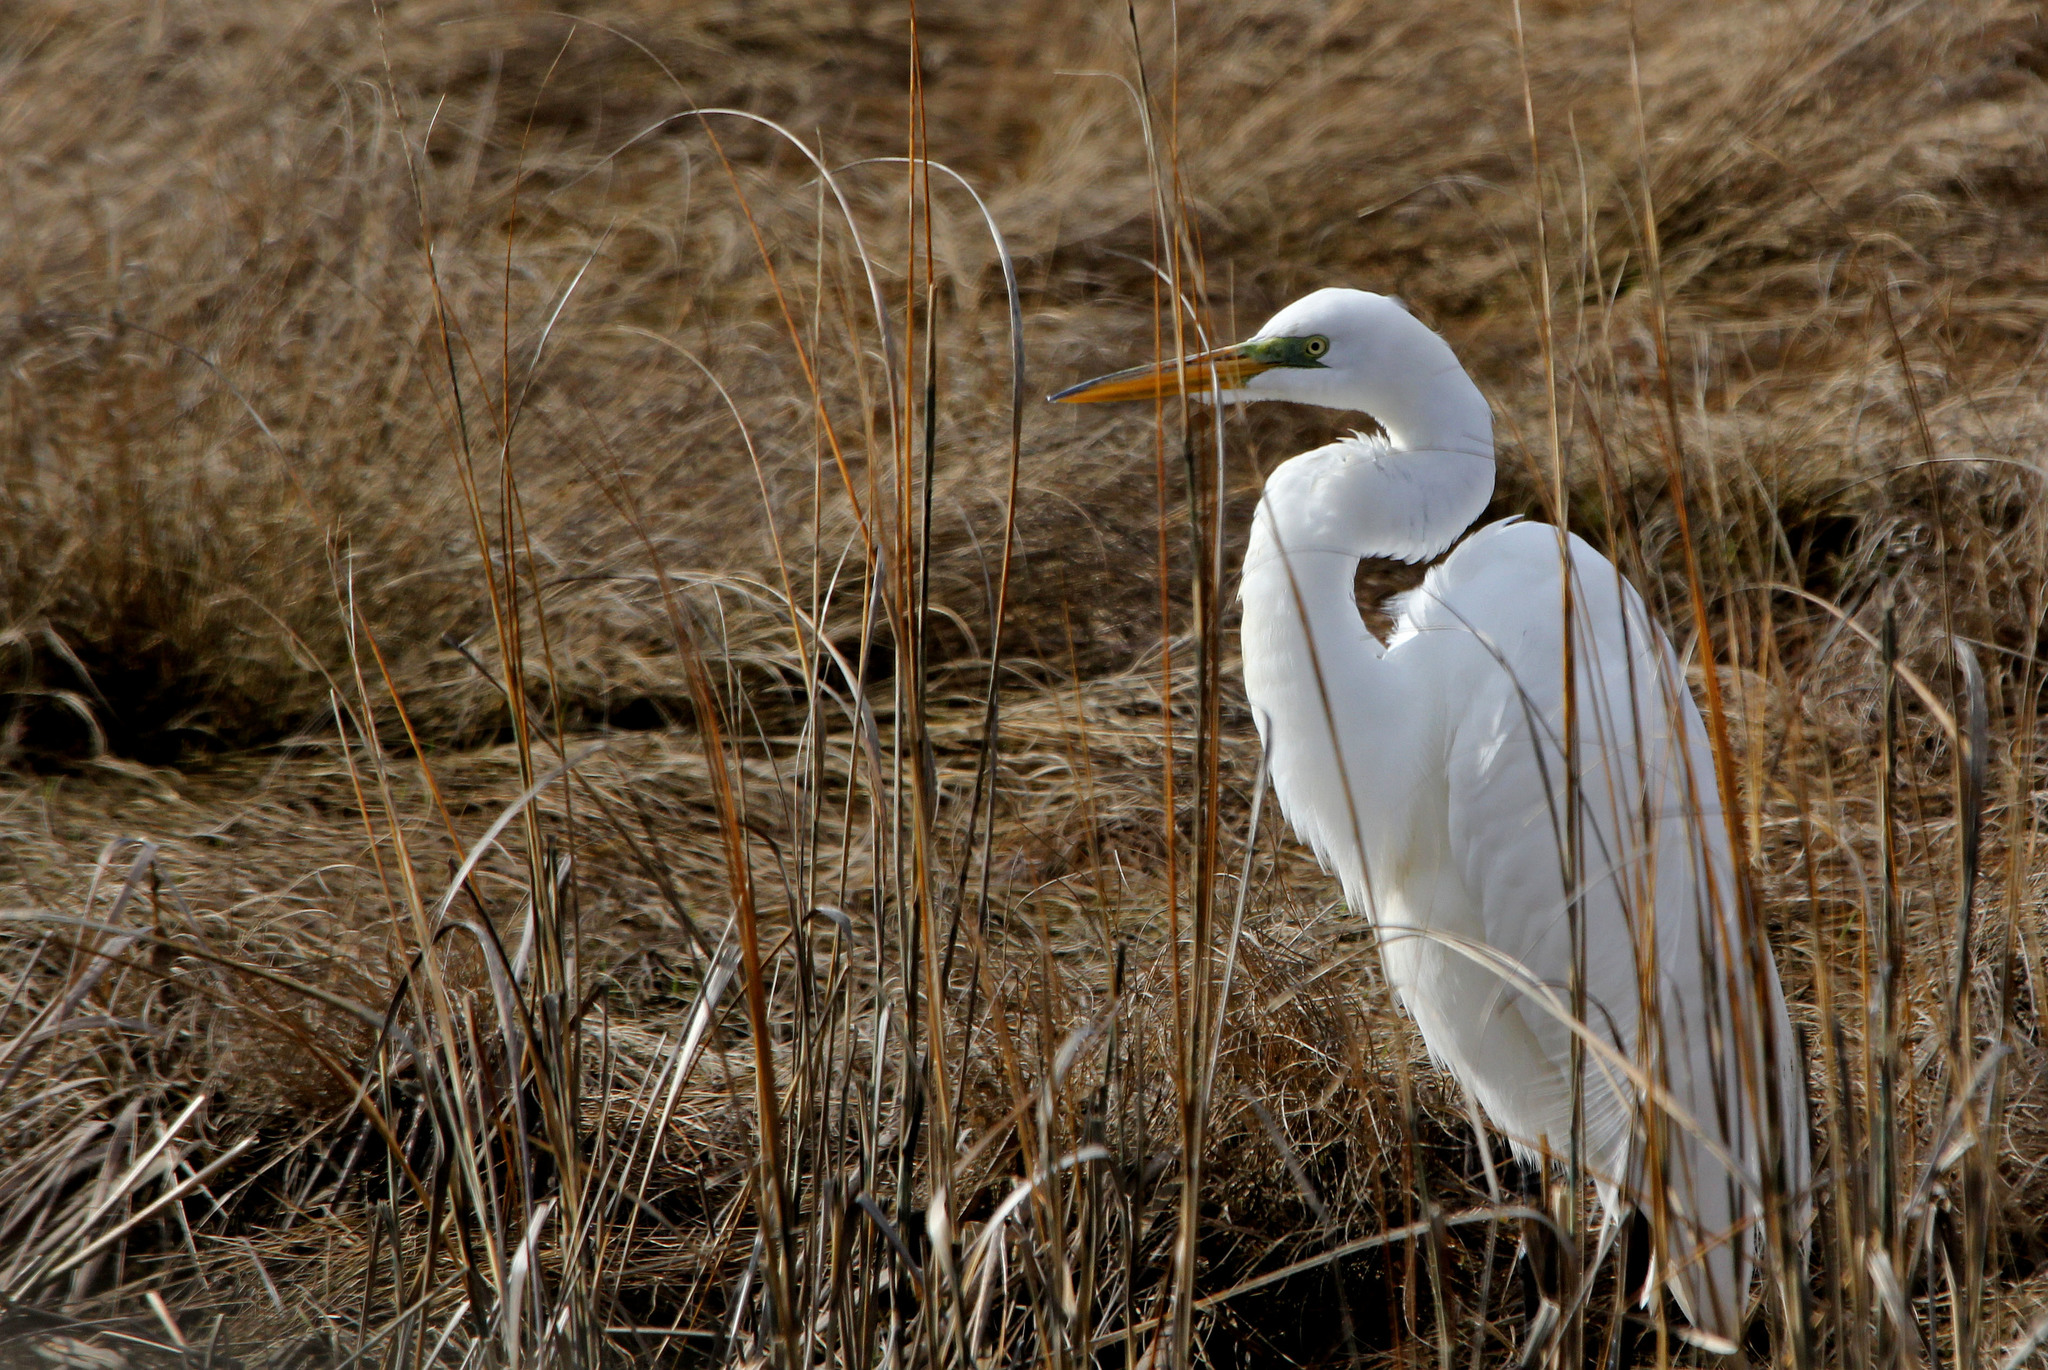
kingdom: Animalia
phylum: Chordata
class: Aves
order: Pelecaniformes
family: Ardeidae
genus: Ardea
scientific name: Ardea alba
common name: Great egret
